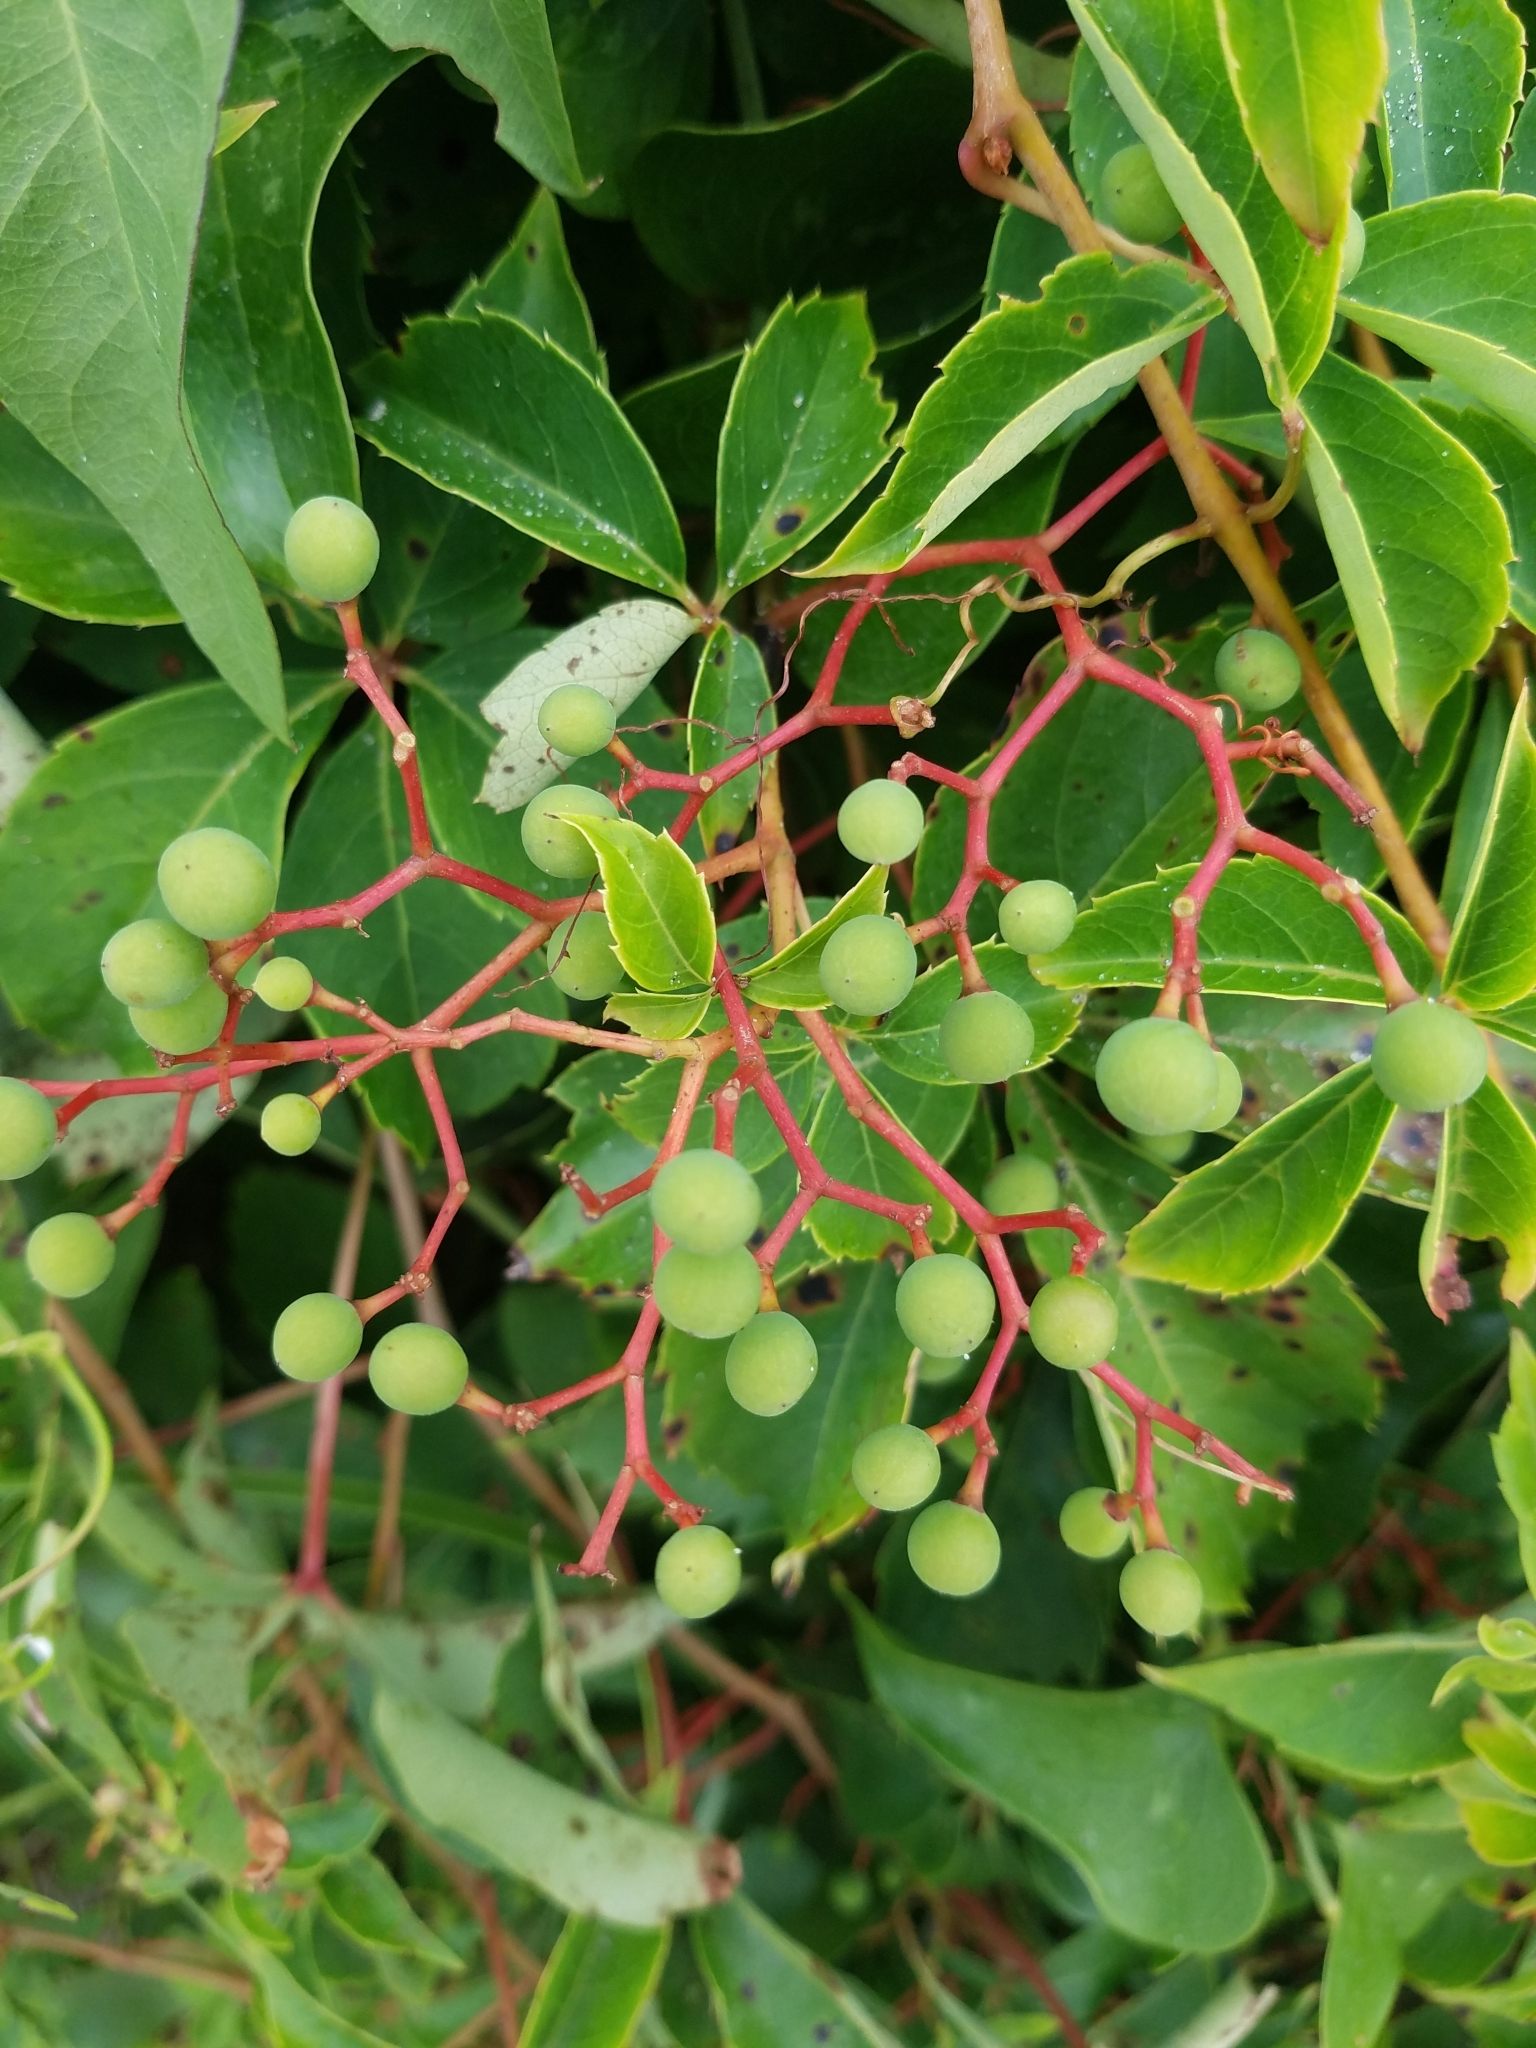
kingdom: Plantae
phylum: Tracheophyta
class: Magnoliopsida
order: Vitales
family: Vitaceae
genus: Parthenocissus
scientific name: Parthenocissus quinquefolia
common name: Virginia-creeper
